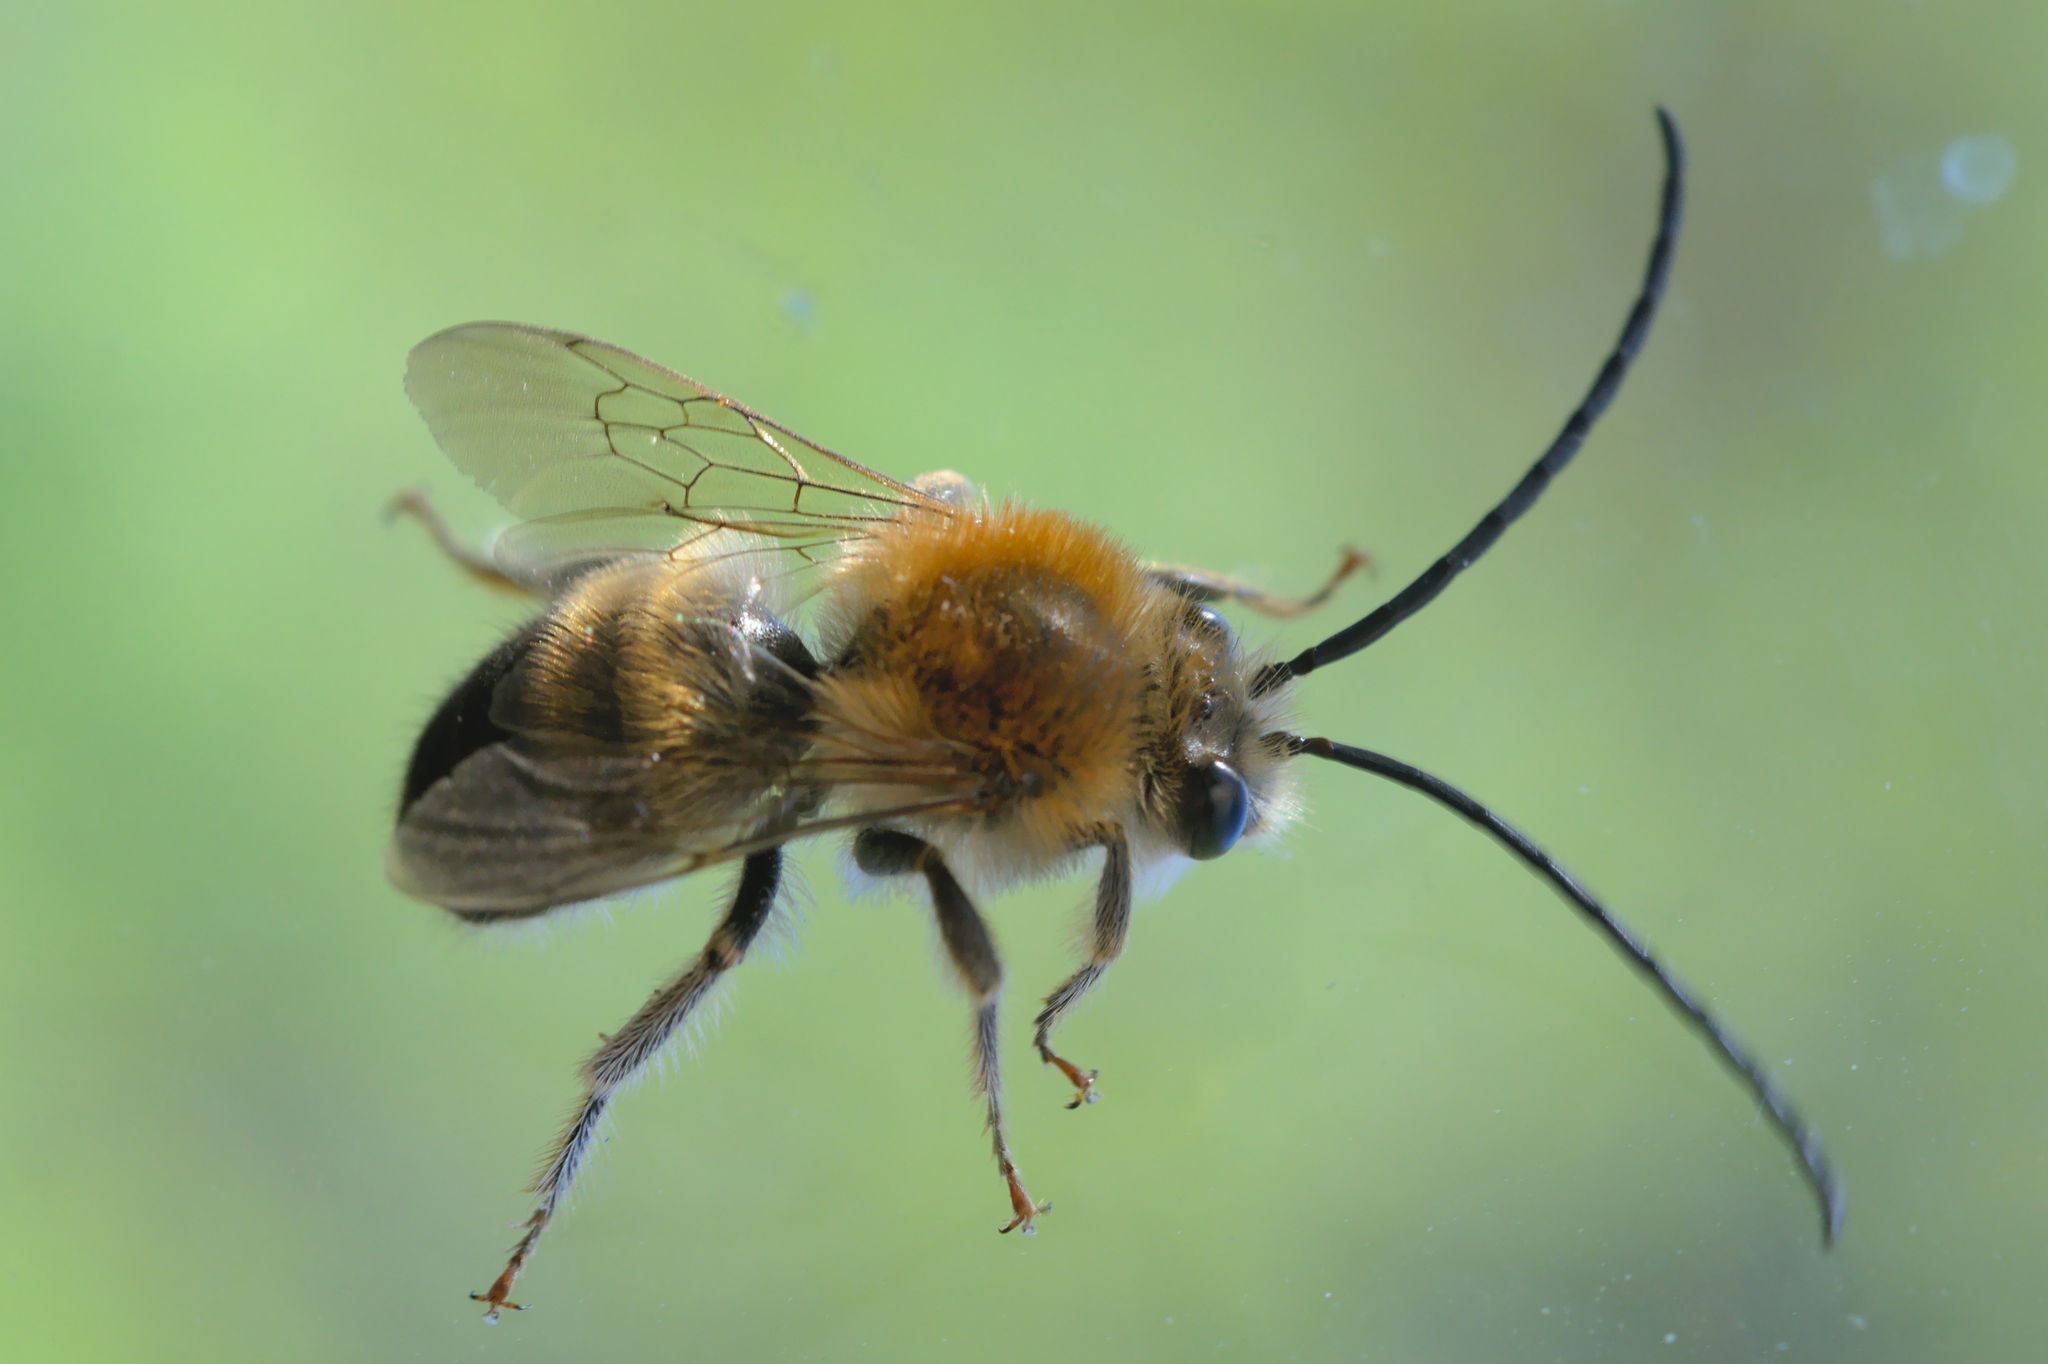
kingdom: Animalia
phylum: Arthropoda
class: Insecta
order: Hymenoptera
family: Apidae
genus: Eucera
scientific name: Eucera nigrescens
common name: Tuberculate long-horned bee
